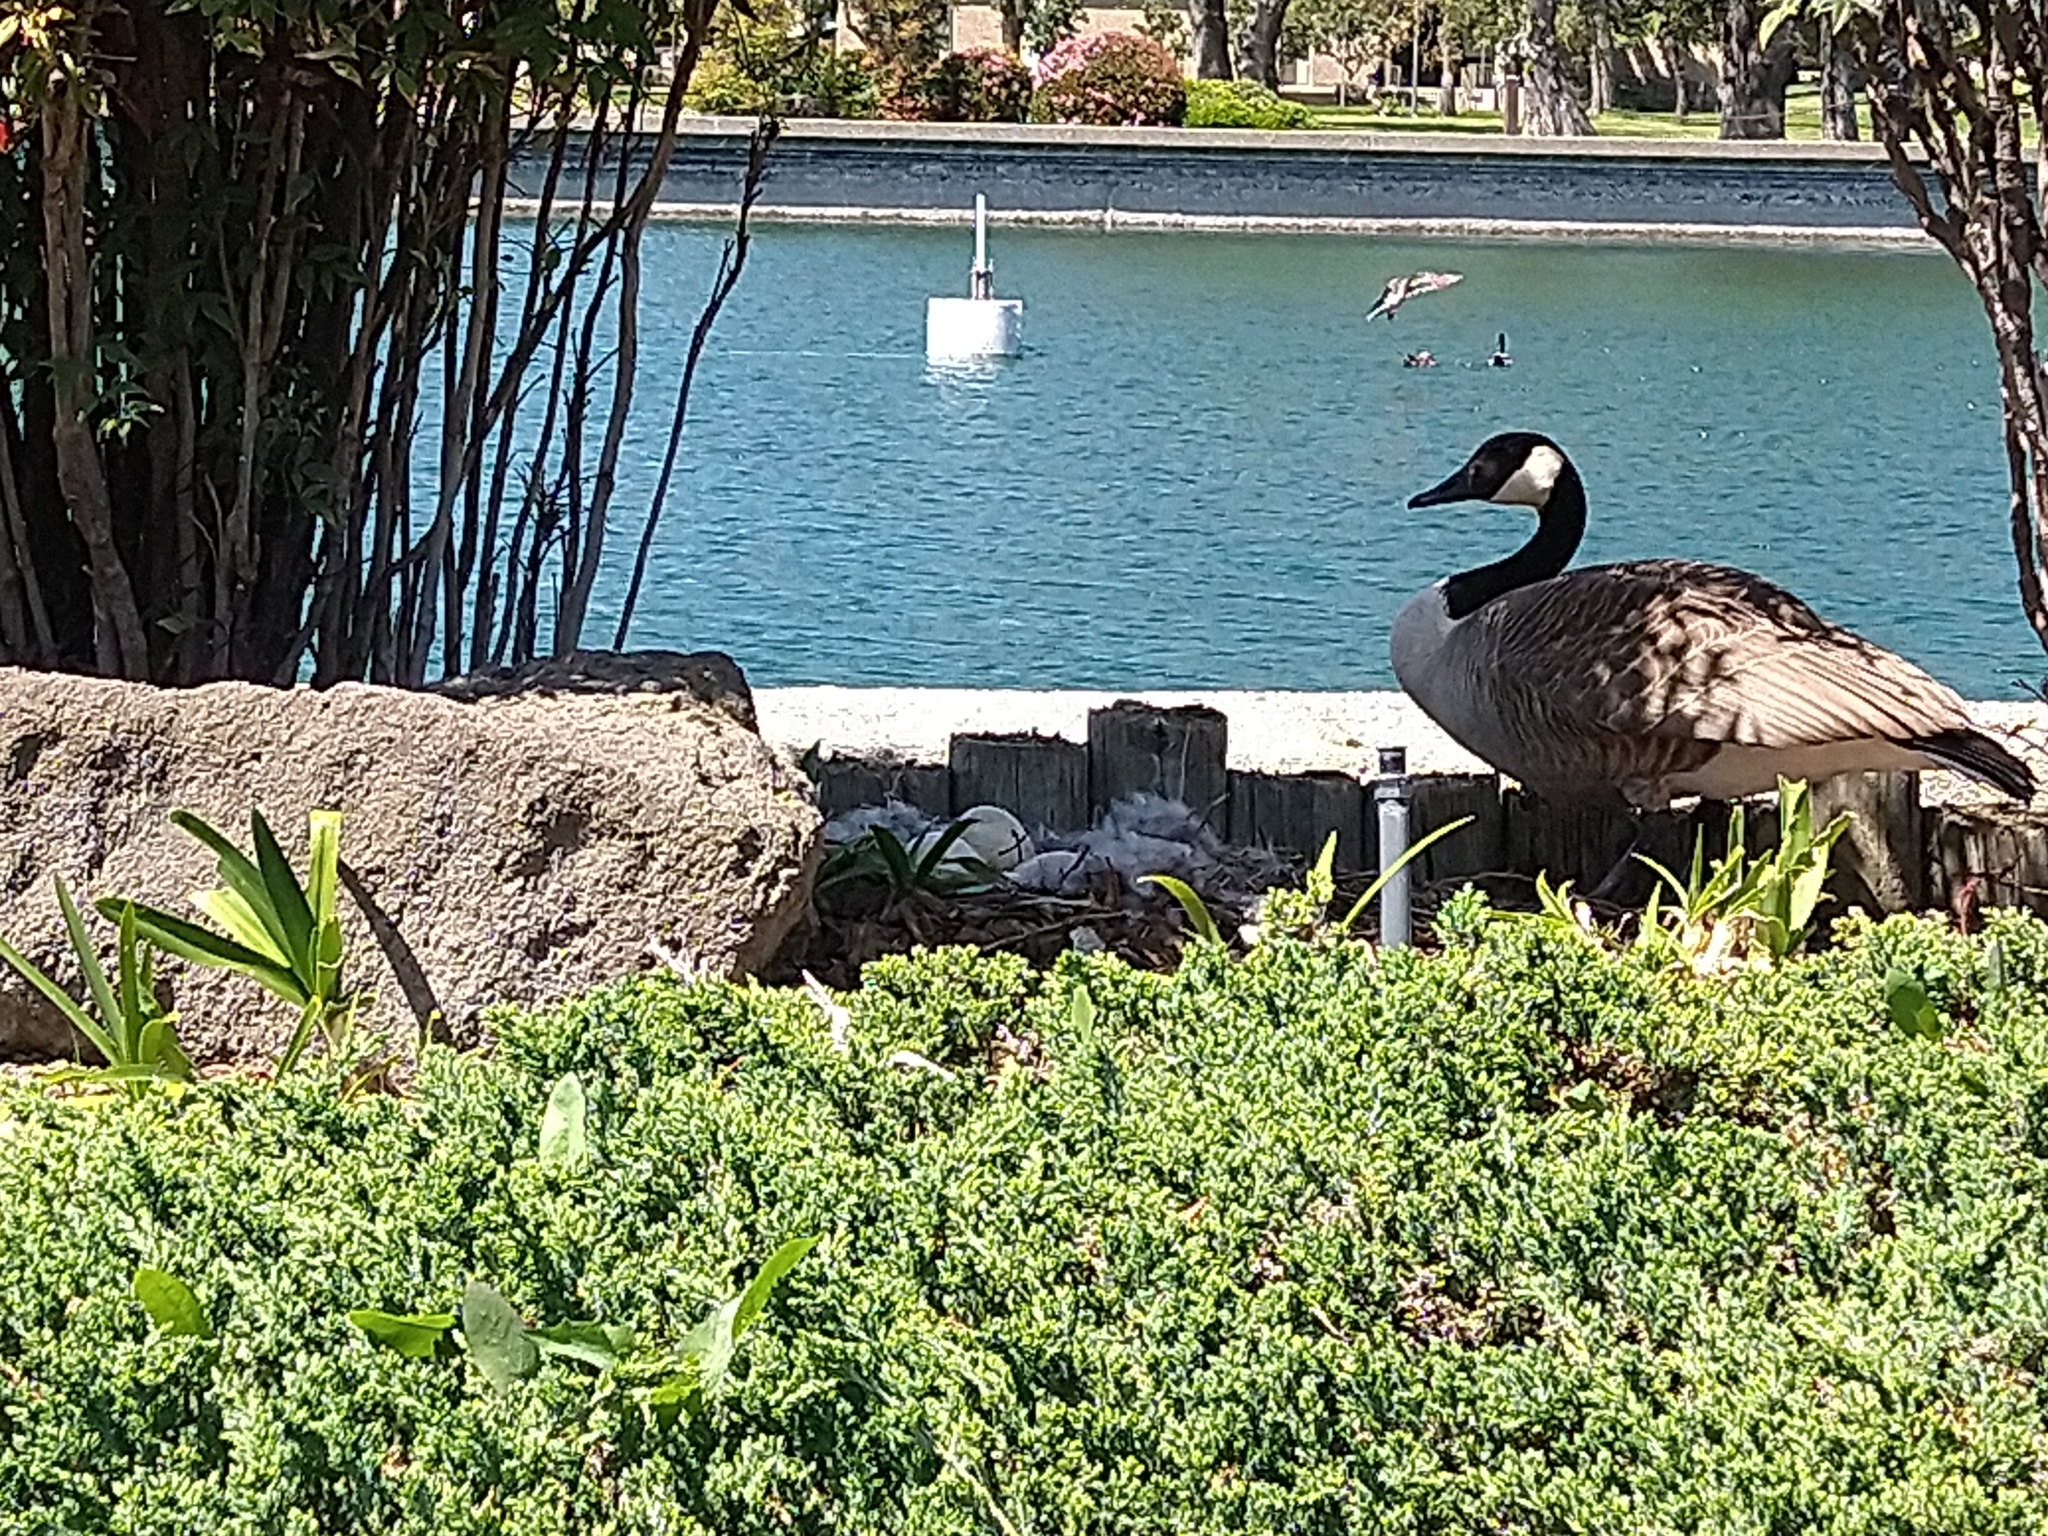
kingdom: Animalia
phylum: Chordata
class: Aves
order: Anseriformes
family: Anatidae
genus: Branta
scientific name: Branta canadensis
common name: Canada goose
